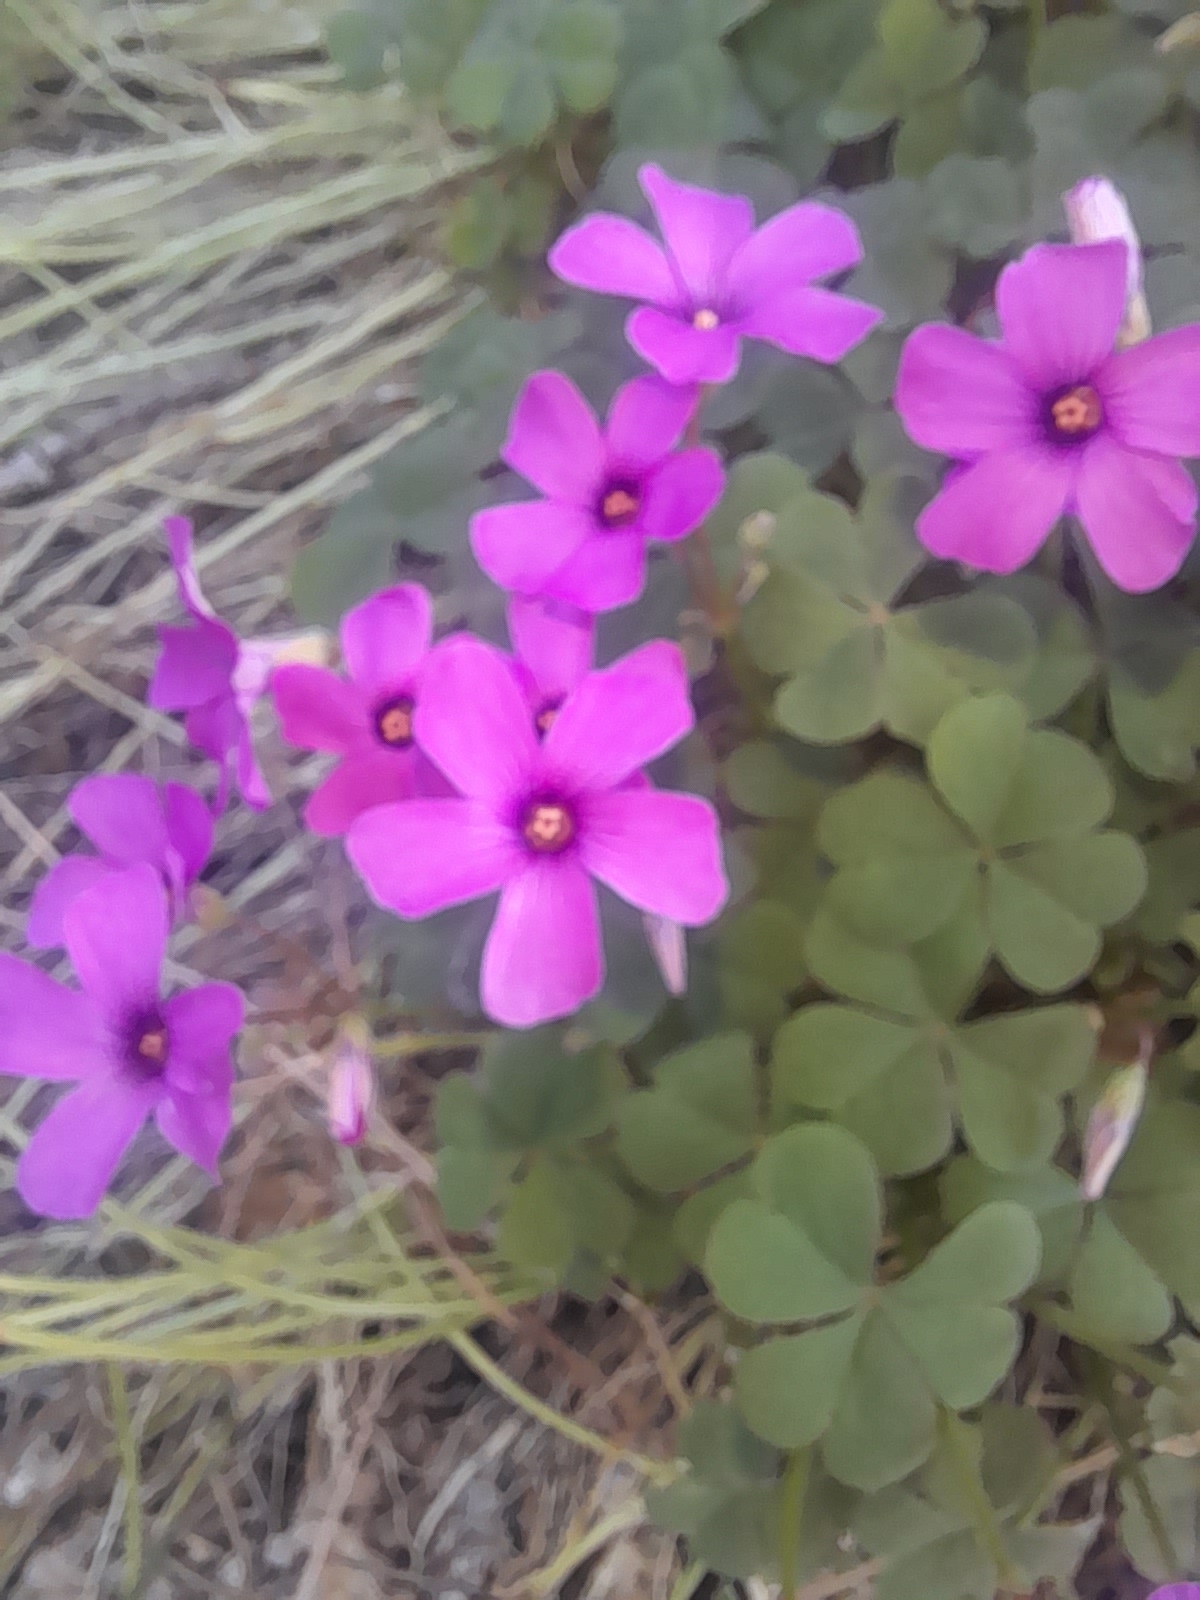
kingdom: Plantae
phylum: Tracheophyta
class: Magnoliopsida
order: Oxalidales
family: Oxalidaceae
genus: Oxalis
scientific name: Oxalis articulata
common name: Pink-sorrel
